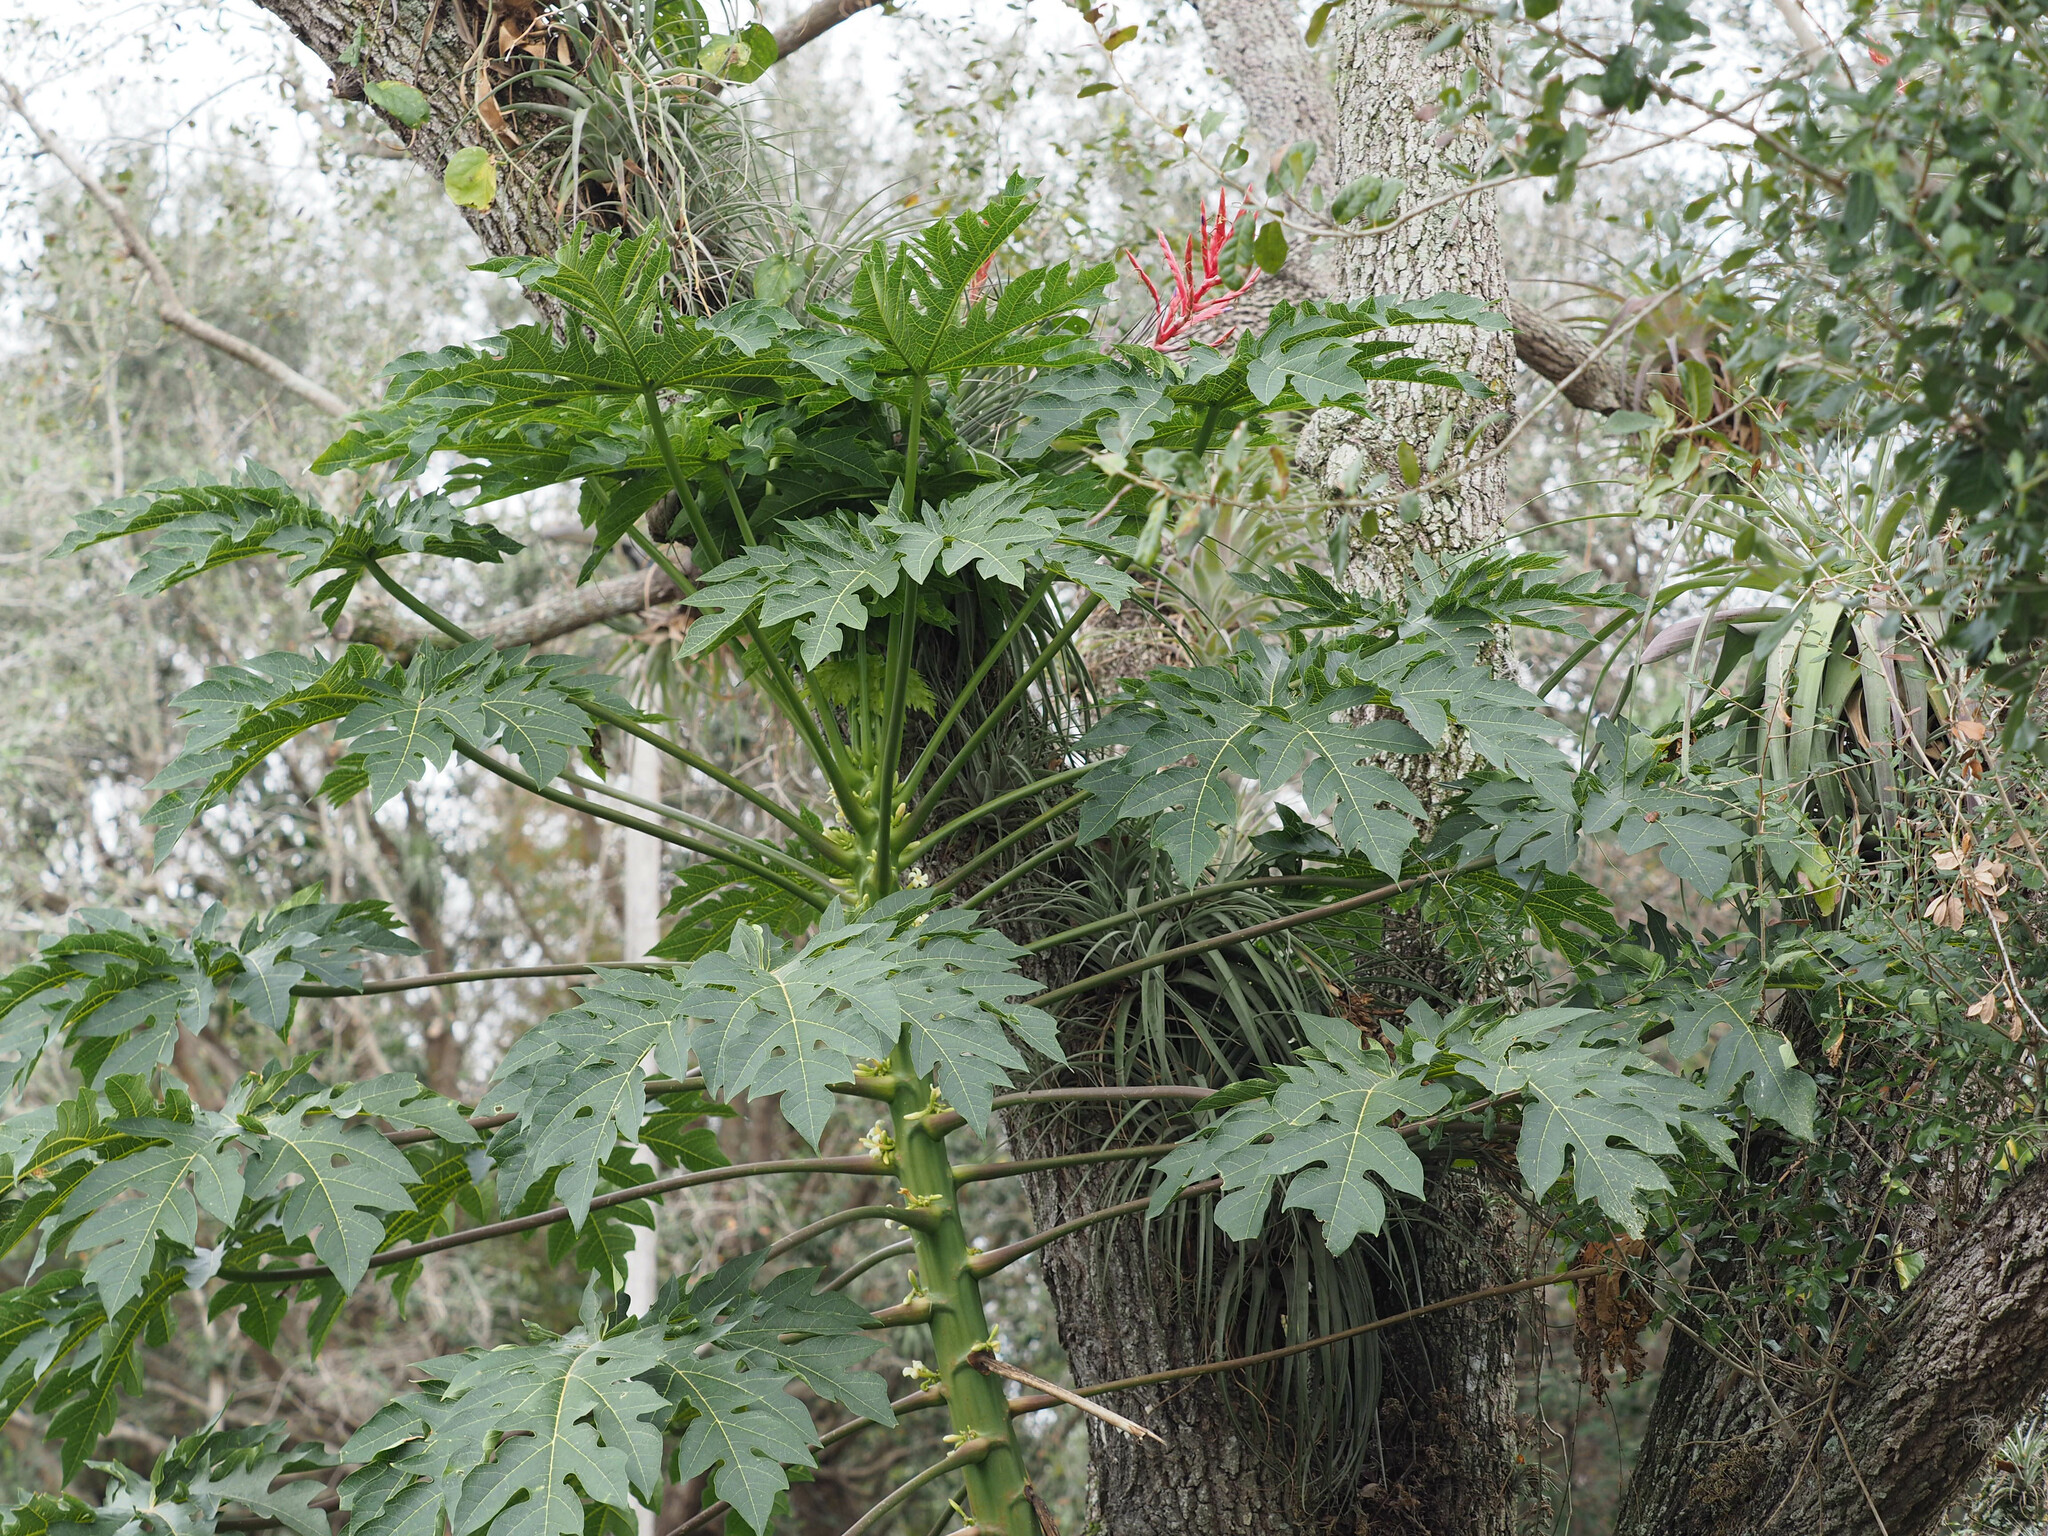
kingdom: Plantae
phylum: Tracheophyta
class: Magnoliopsida
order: Brassicales
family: Caricaceae
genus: Carica
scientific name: Carica papaya
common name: Papaya
